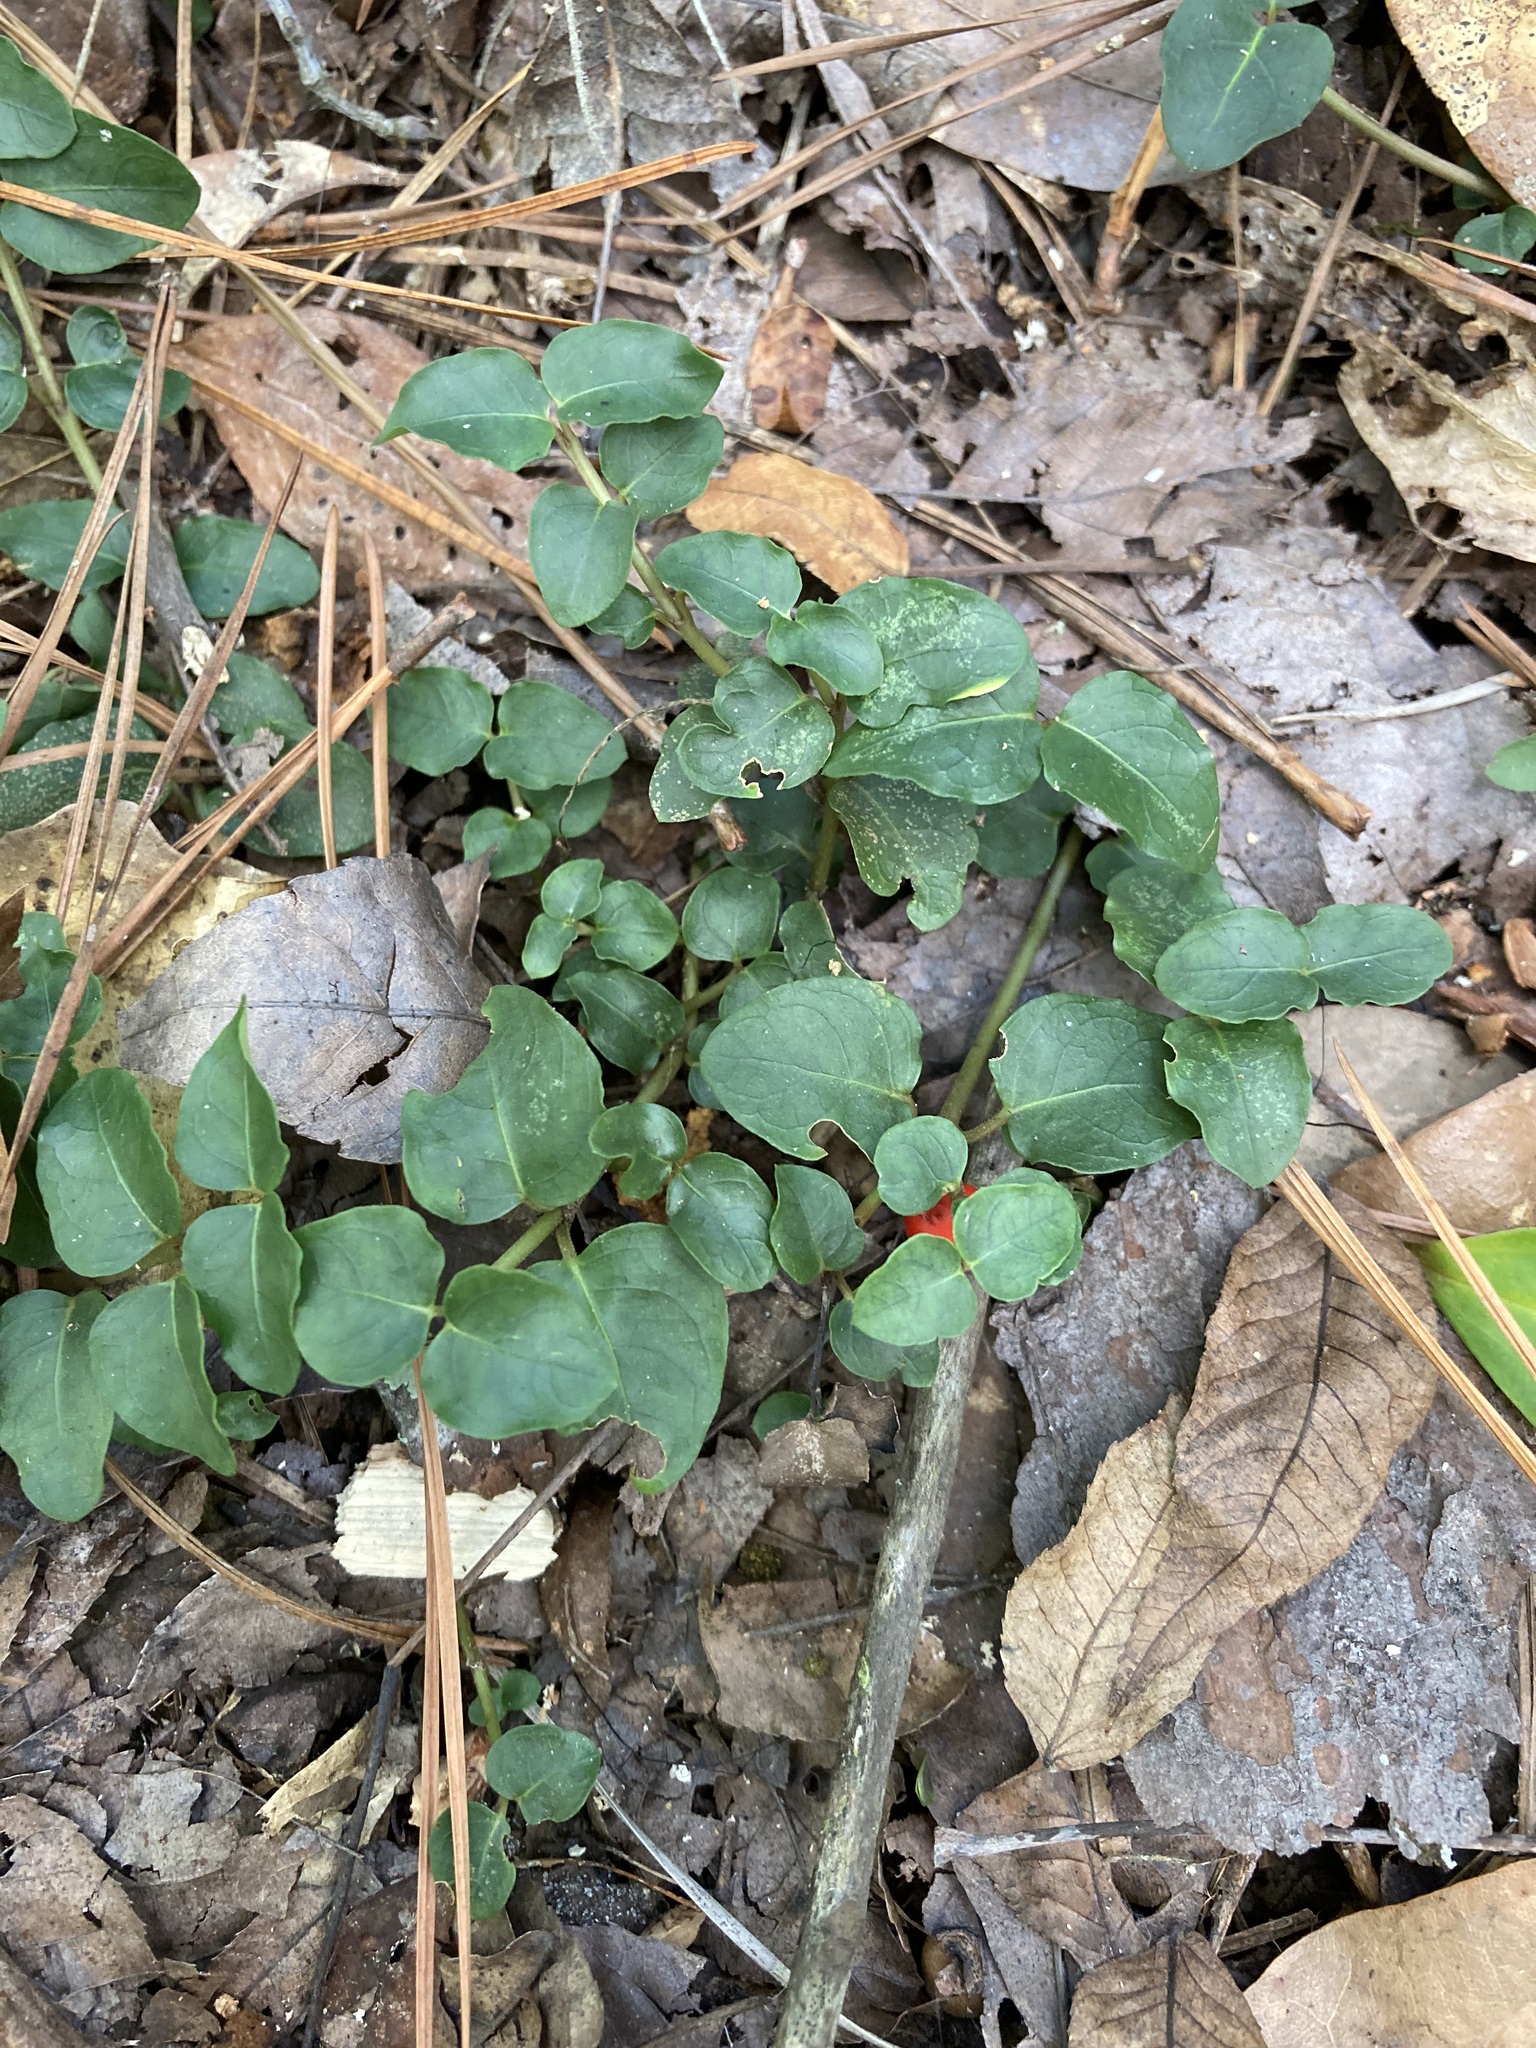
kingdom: Plantae
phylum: Tracheophyta
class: Magnoliopsida
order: Gentianales
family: Rubiaceae
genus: Mitchella
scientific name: Mitchella repens
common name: Partridge-berry
